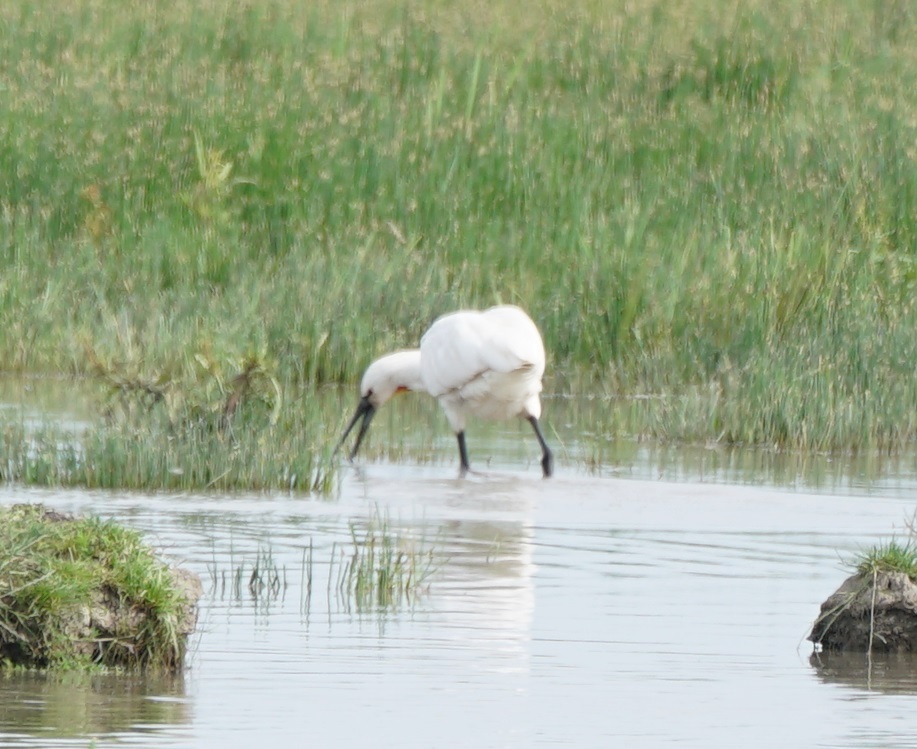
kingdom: Animalia
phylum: Chordata
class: Aves
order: Pelecaniformes
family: Threskiornithidae
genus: Platalea
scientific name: Platalea leucorodia
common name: Eurasian spoonbill
